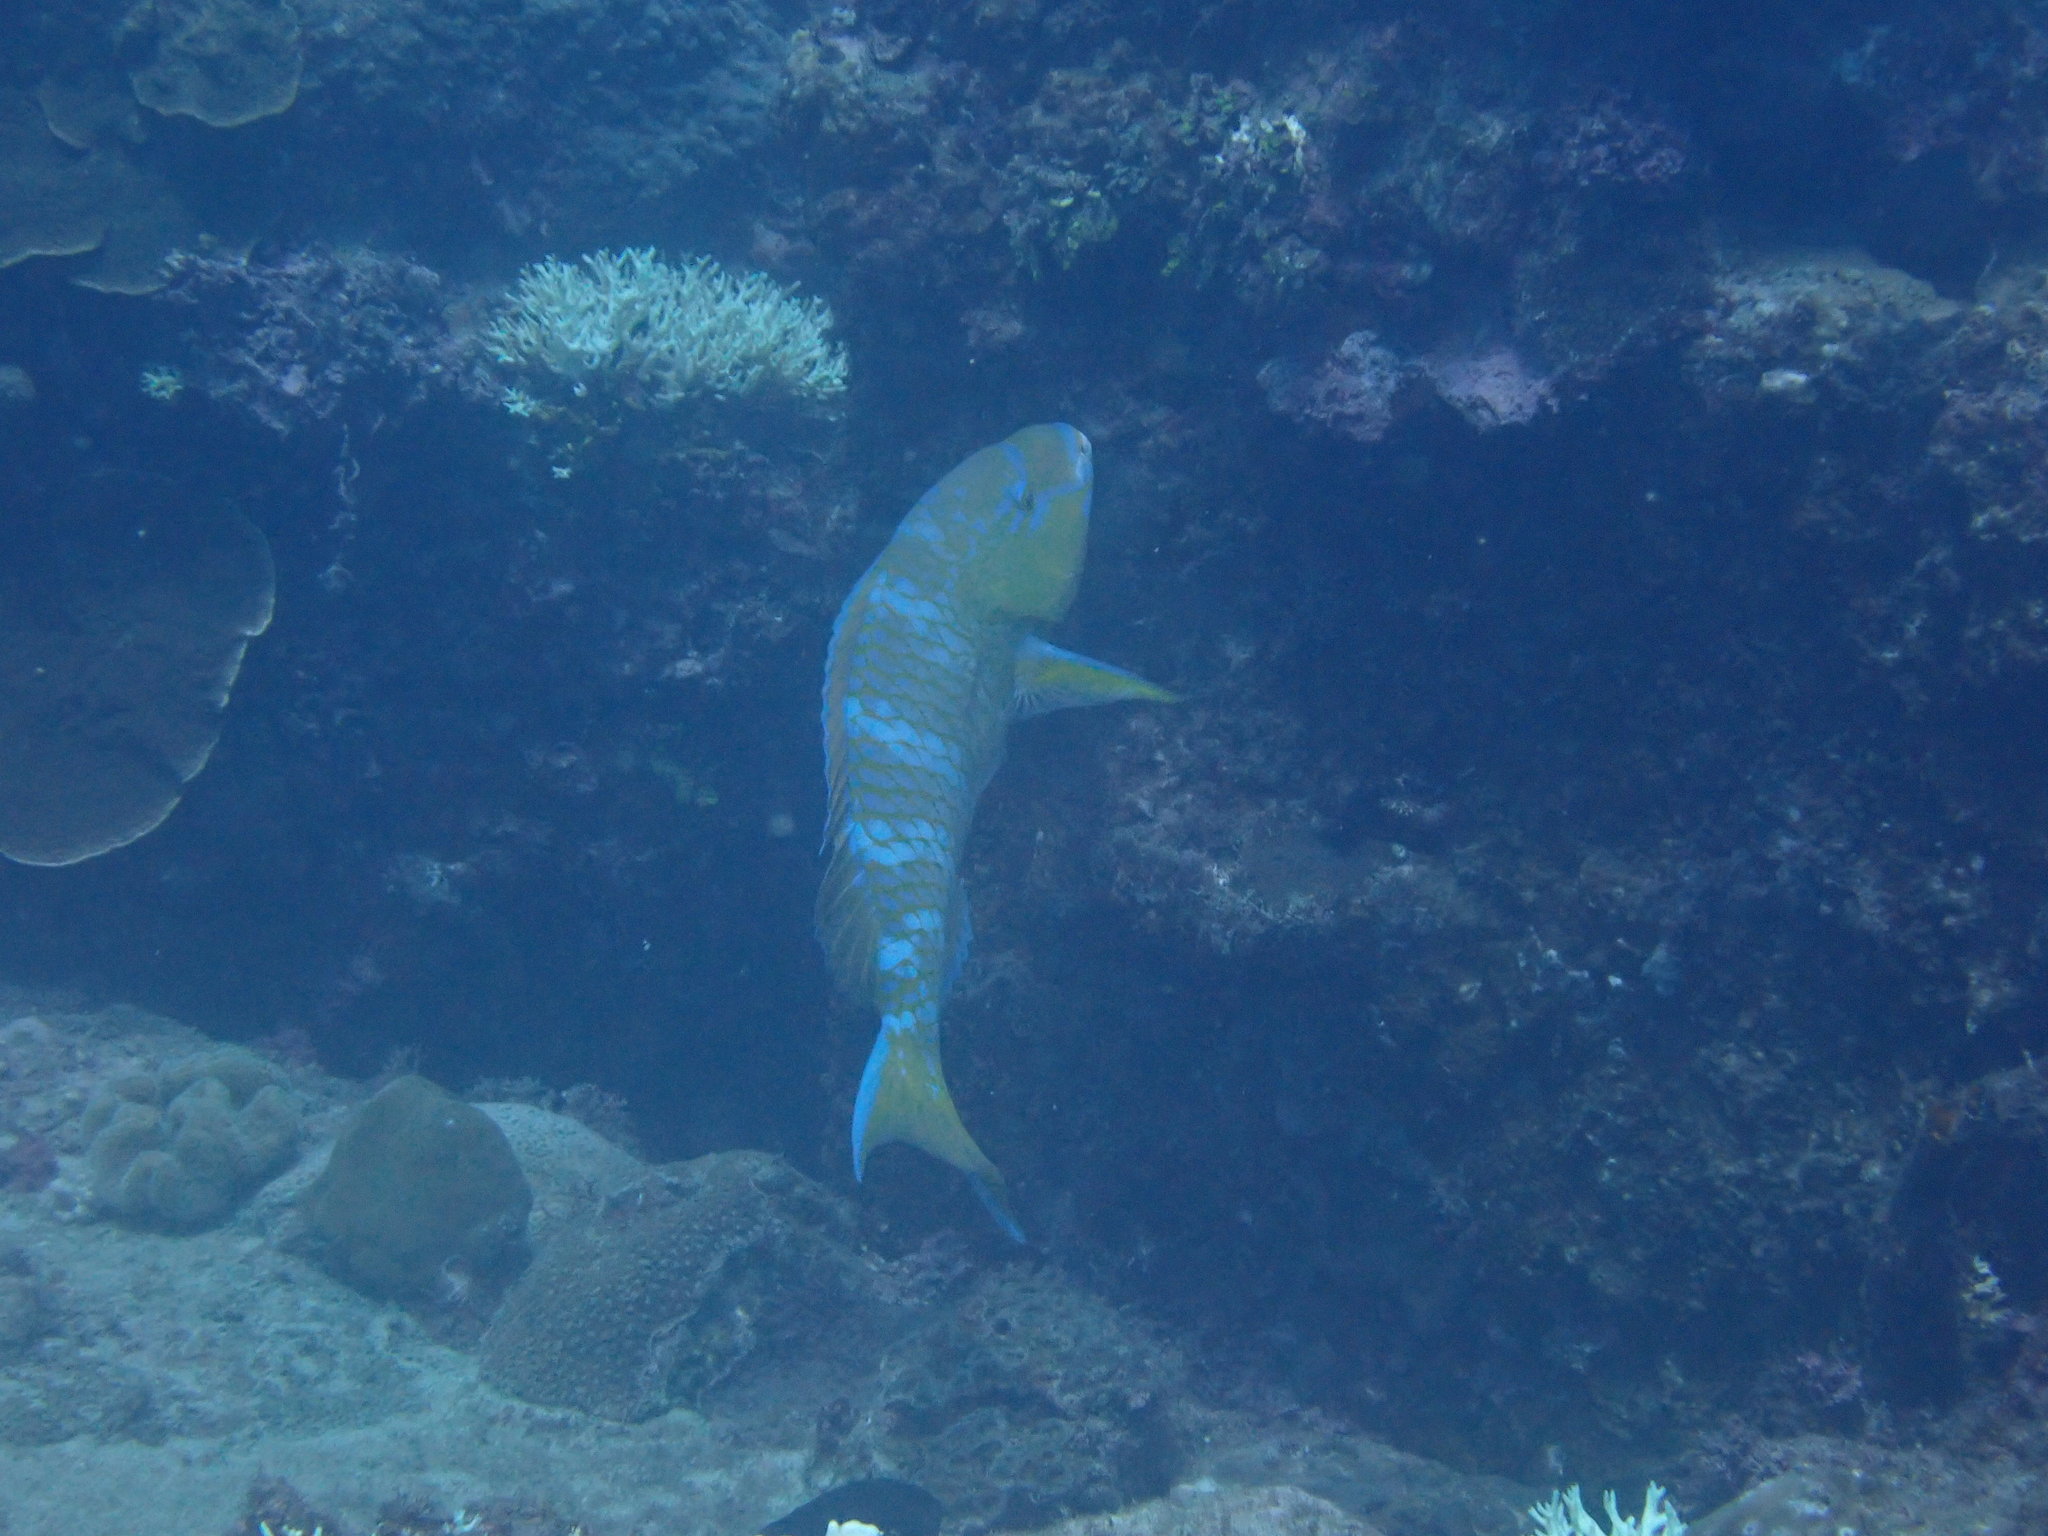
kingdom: Animalia
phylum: Chordata
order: Perciformes
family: Scaridae
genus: Scarus
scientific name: Scarus ghobban
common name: Blue-barred parrotfish
